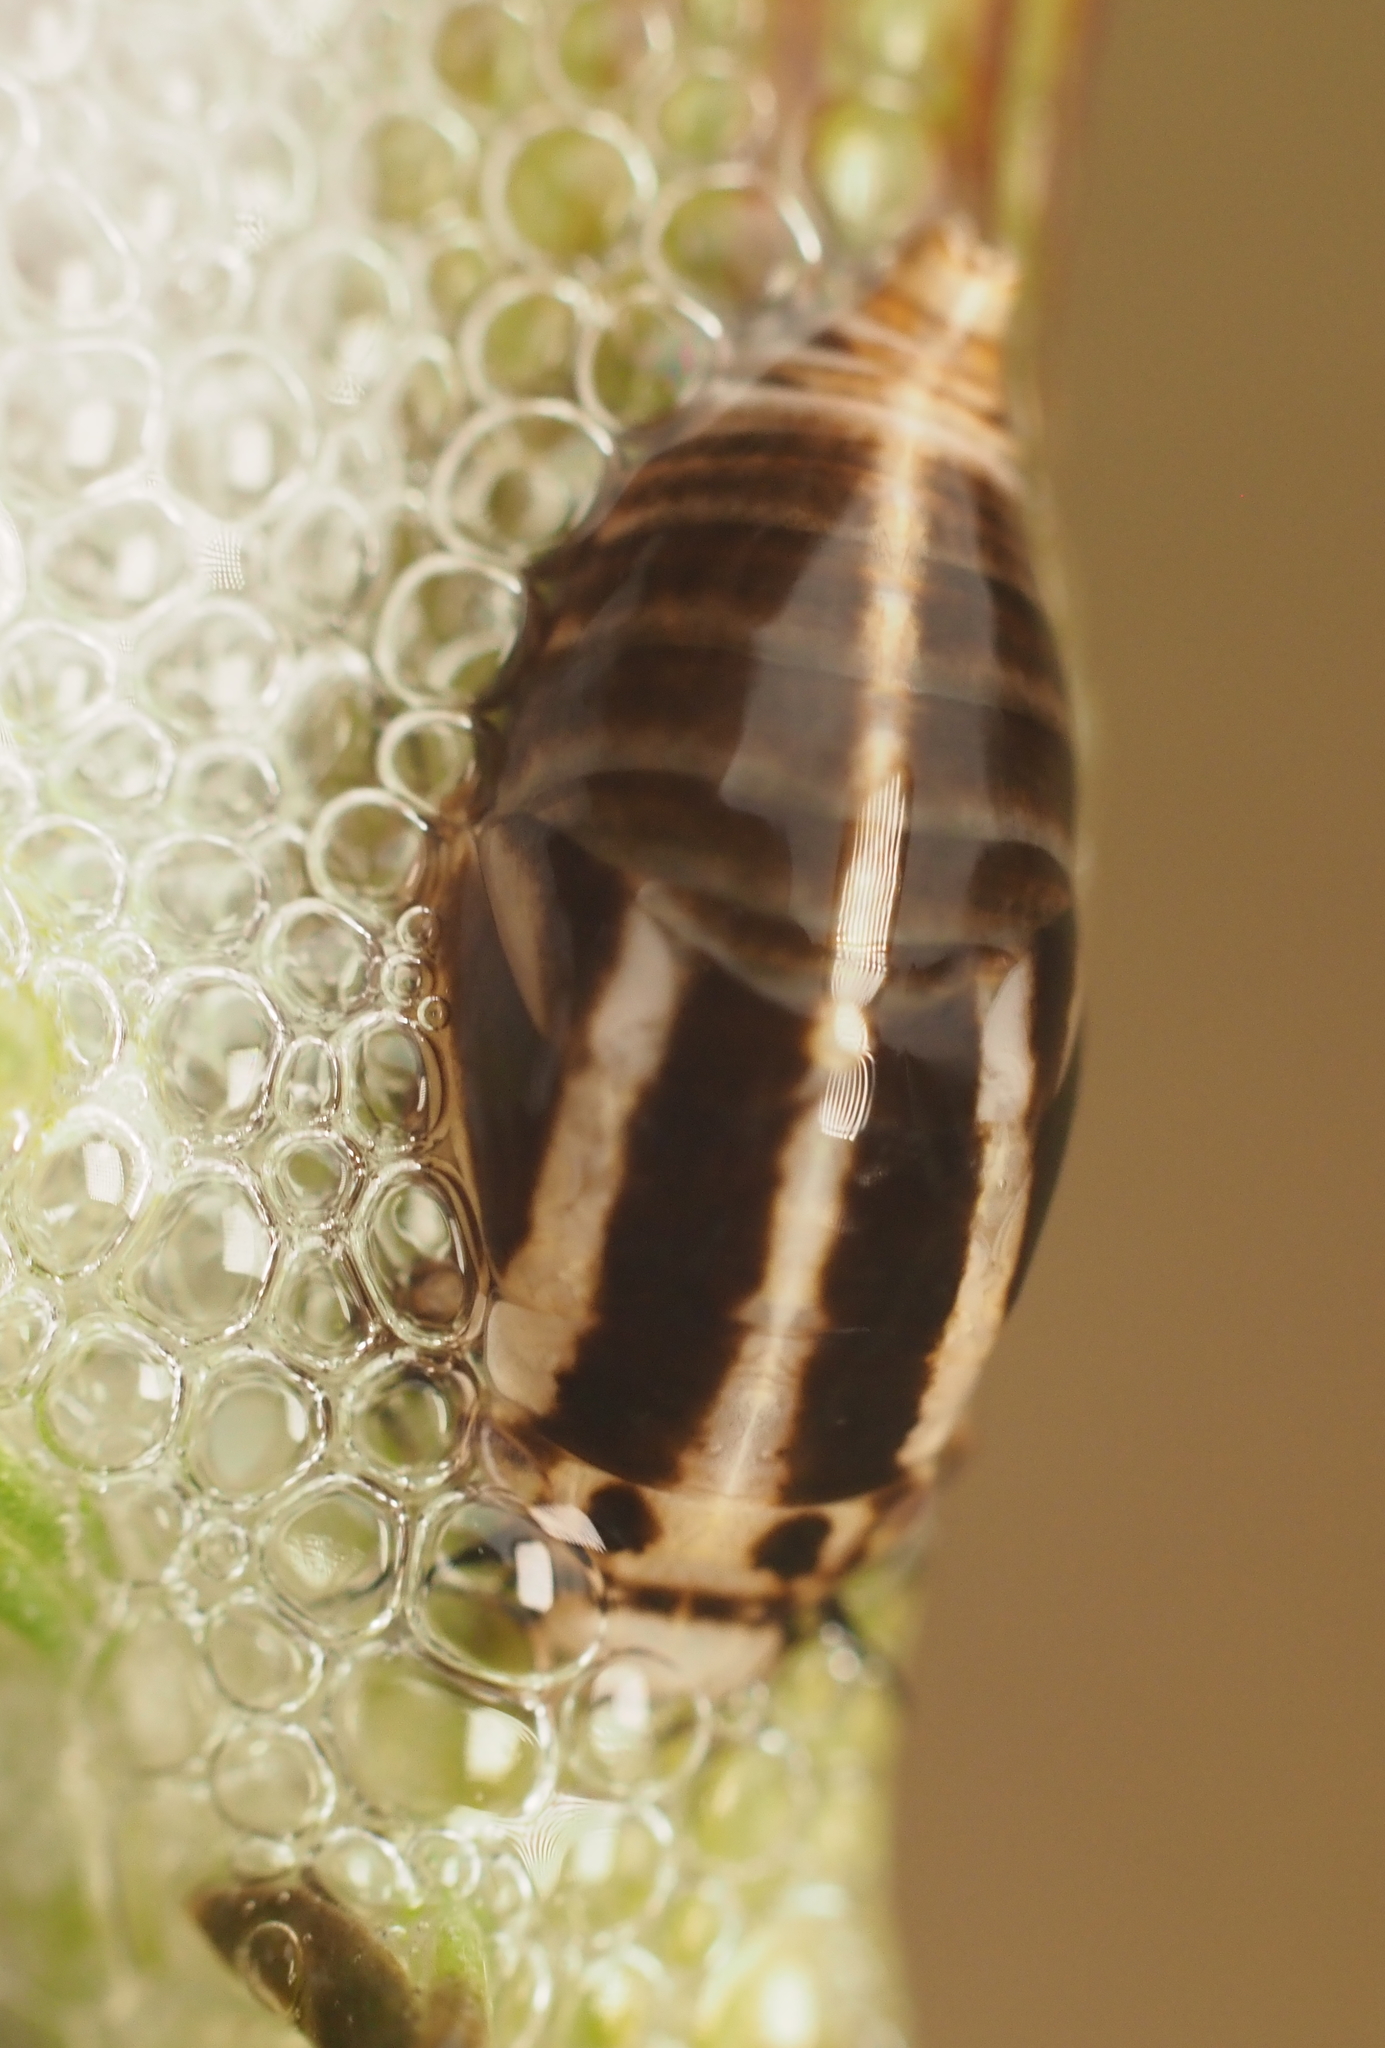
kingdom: Animalia
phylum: Arthropoda
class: Insecta
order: Hemiptera
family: Aphrophoridae
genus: Lepyronia
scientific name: Lepyronia gibbosa
